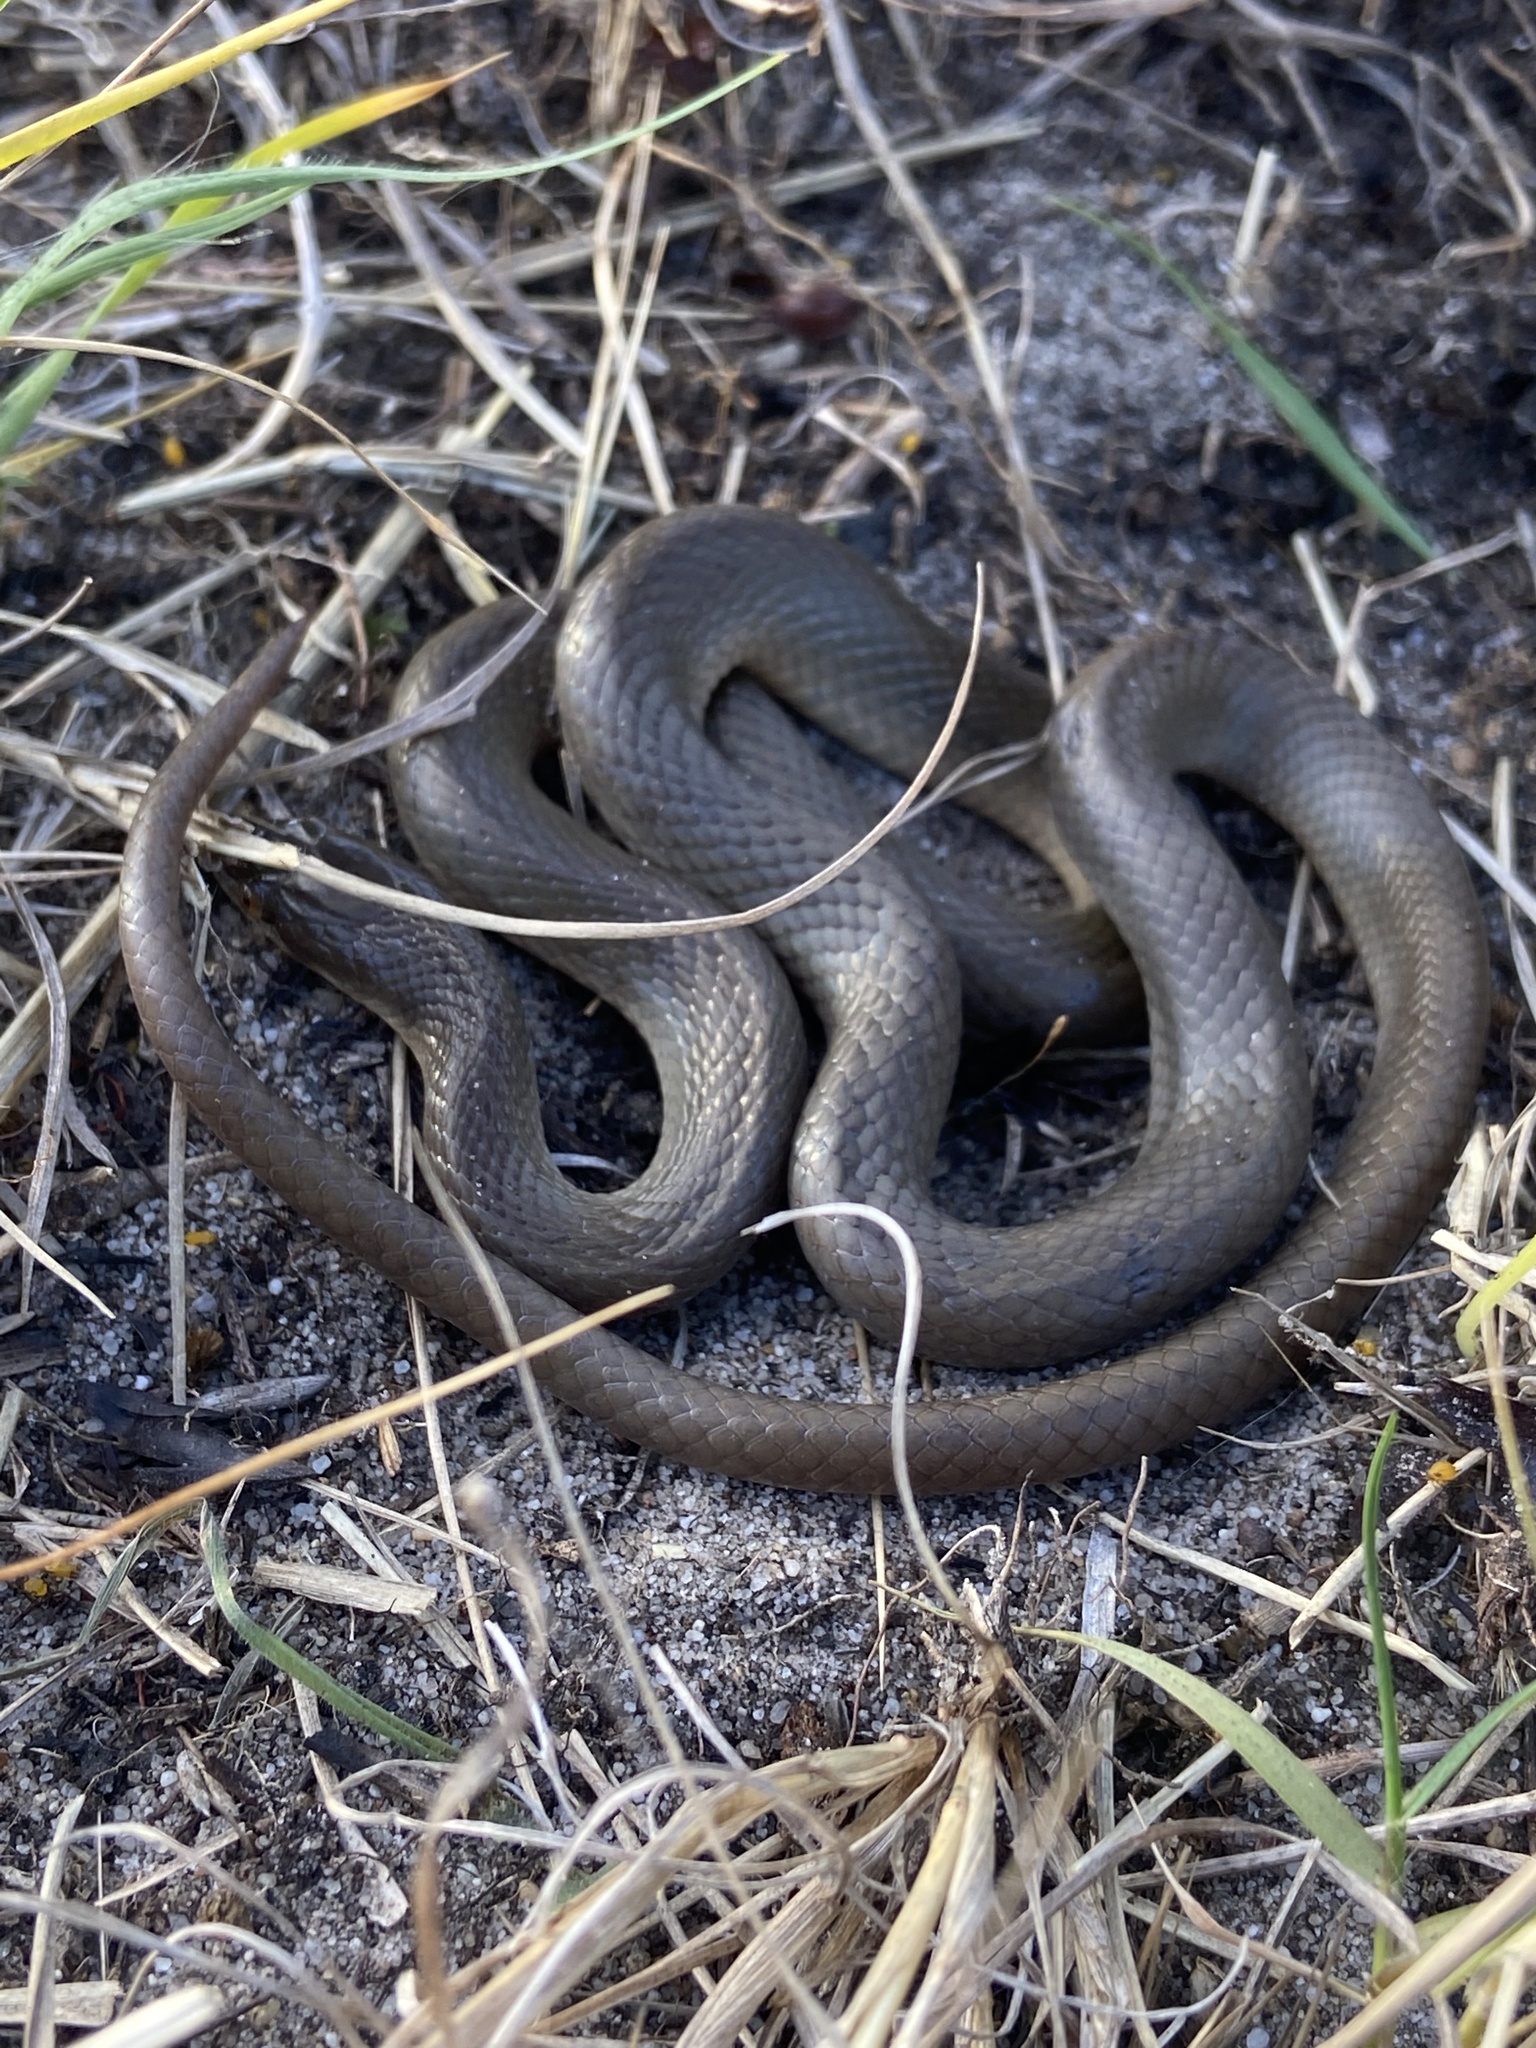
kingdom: Animalia
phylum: Chordata
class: Squamata
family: Lamprophiidae
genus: Lycodonomorphus
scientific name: Lycodonomorphus rufulus
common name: Brown water snake
